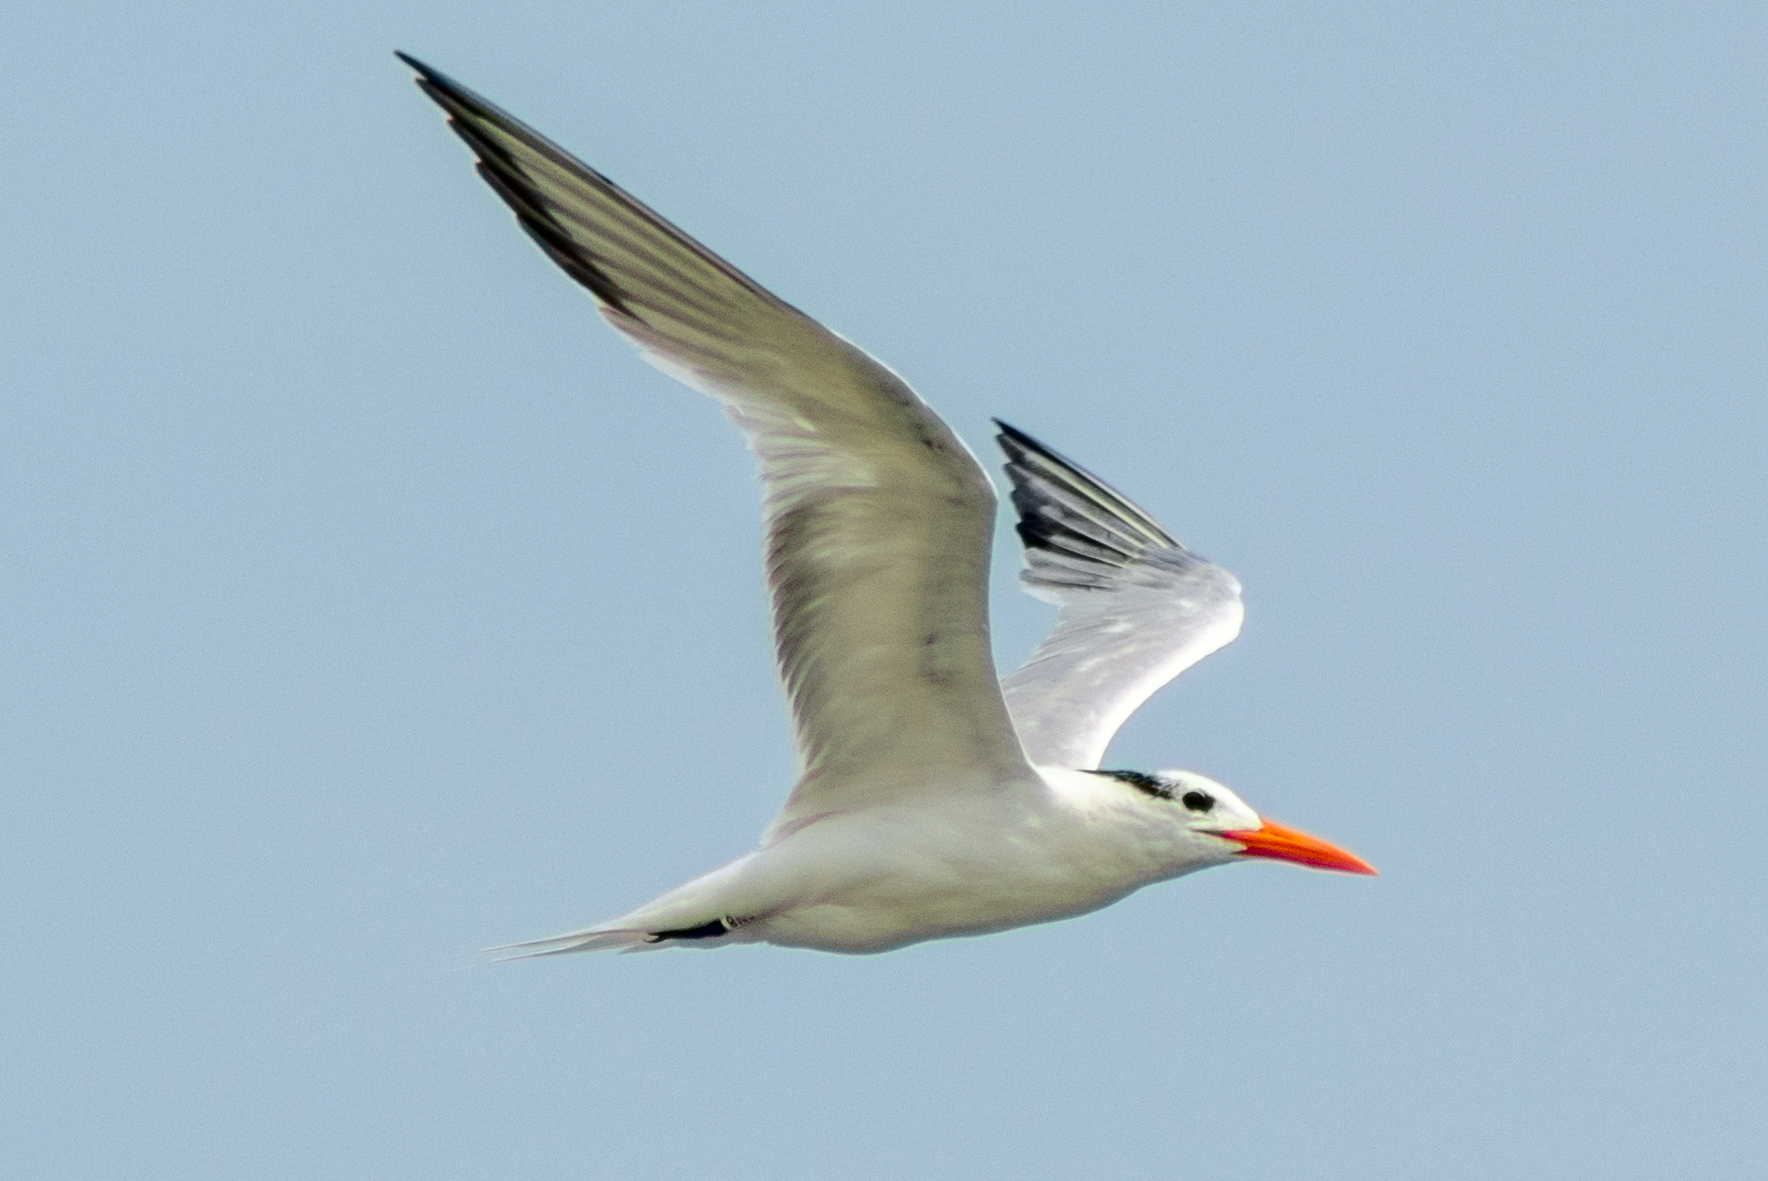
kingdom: Animalia
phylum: Chordata
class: Aves
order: Charadriiformes
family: Laridae
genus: Thalasseus
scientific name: Thalasseus maximus
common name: Royal tern
